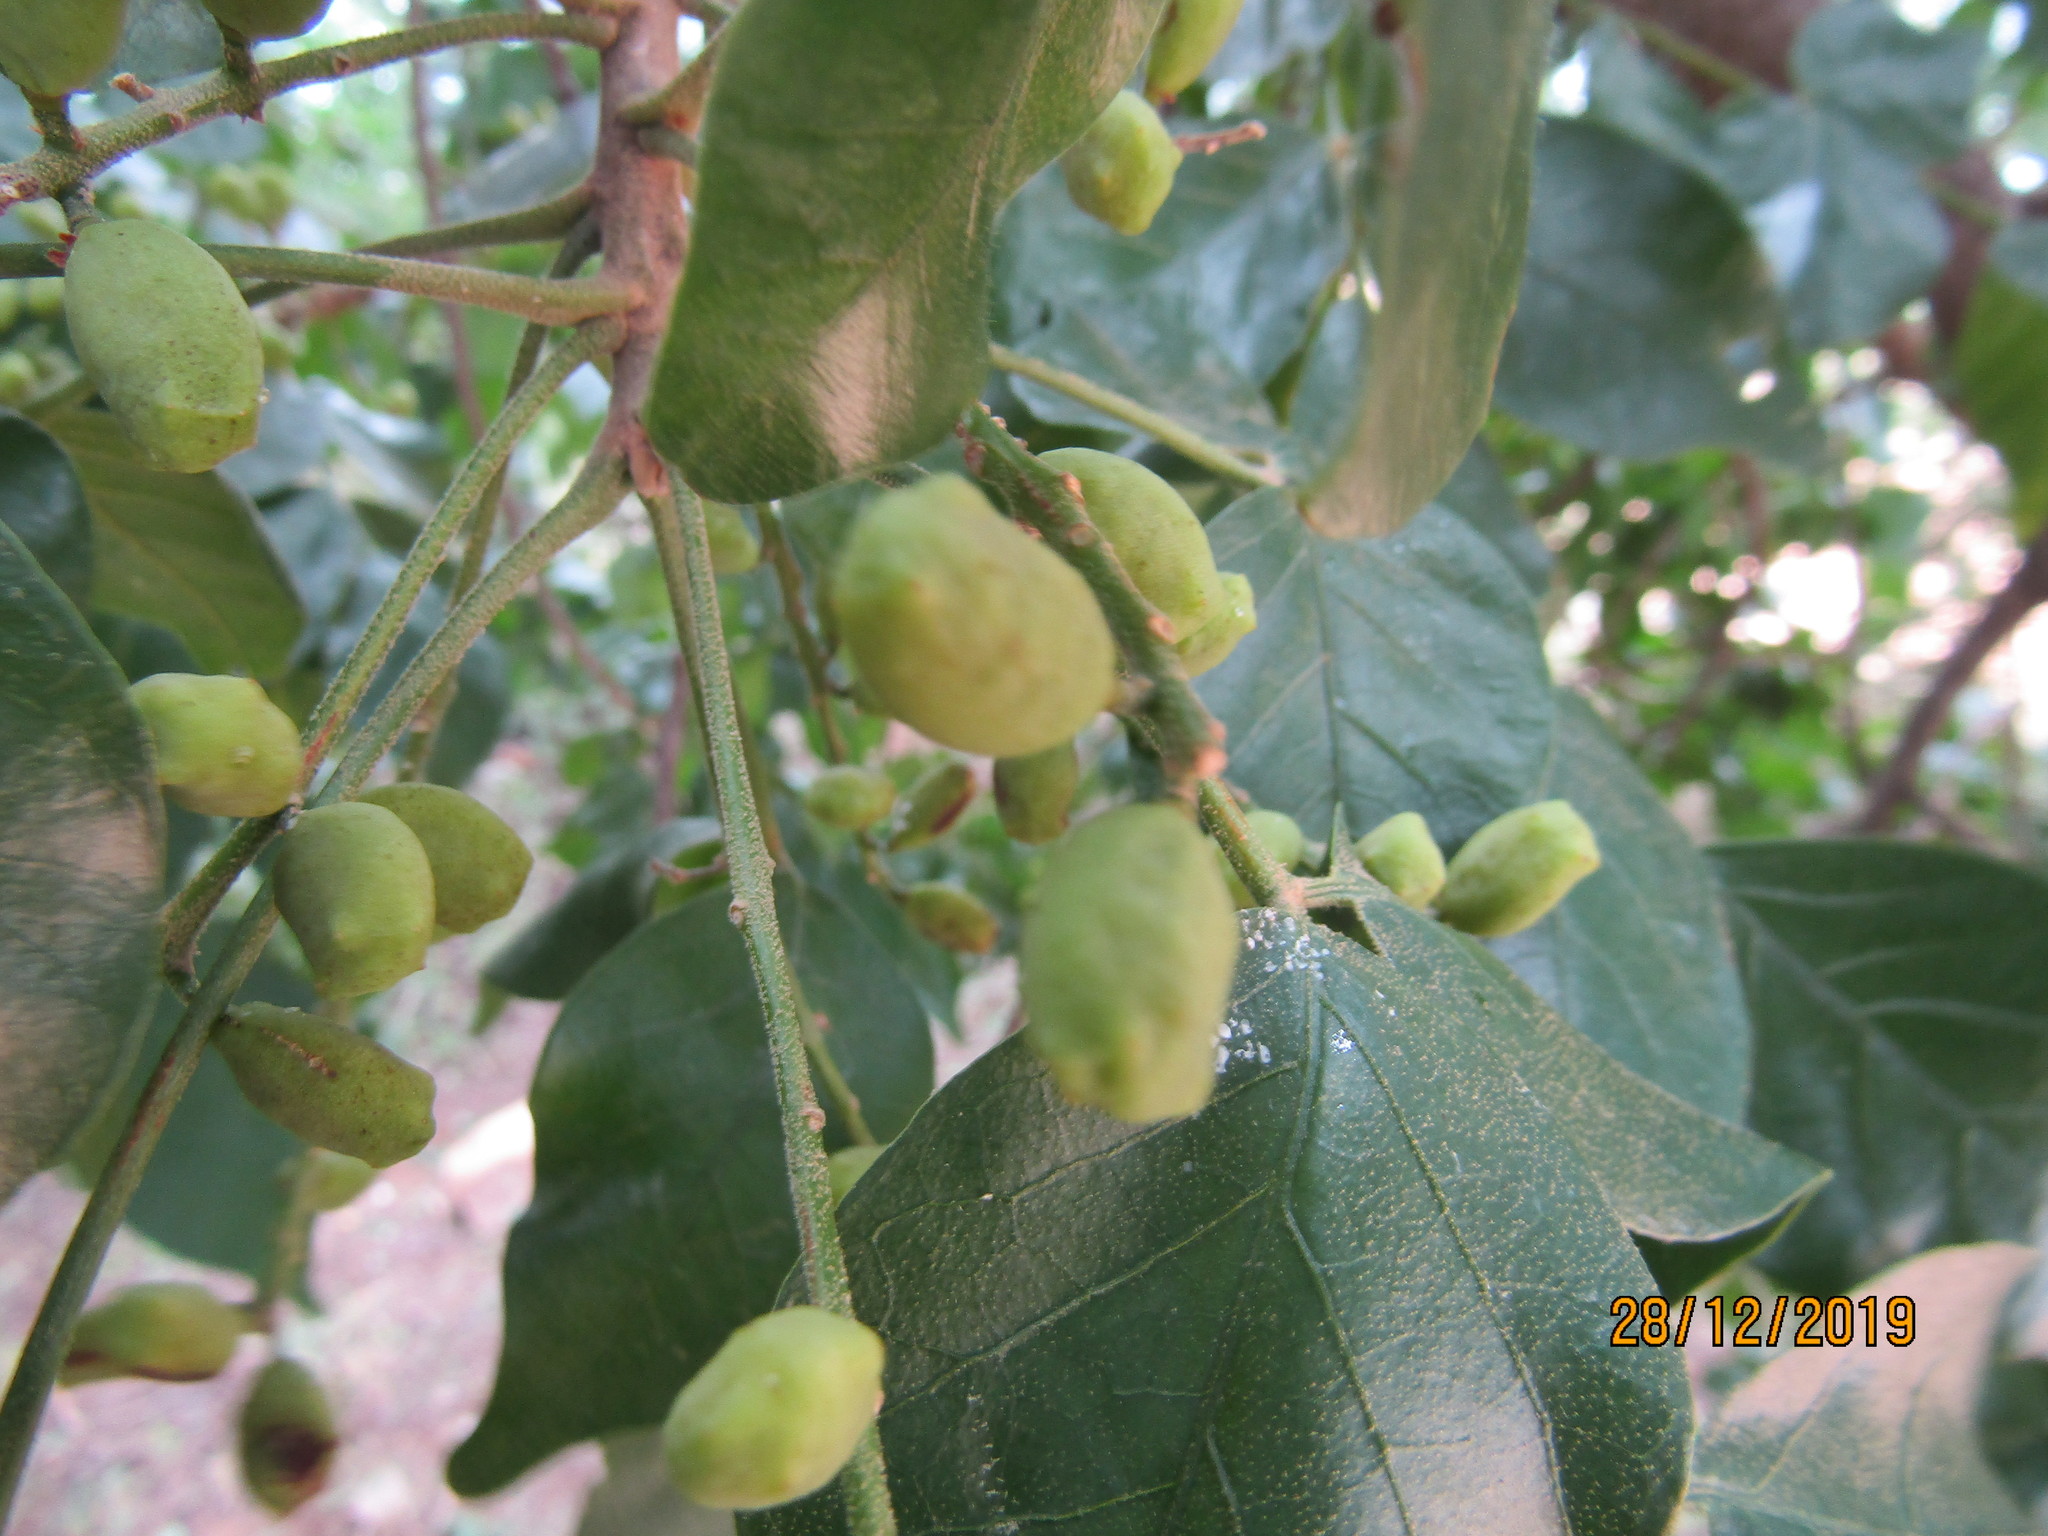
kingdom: Plantae
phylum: Tracheophyta
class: Magnoliopsida
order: Sapindales
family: Anacardiaceae
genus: Lannea
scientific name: Lannea schweinfurthii
